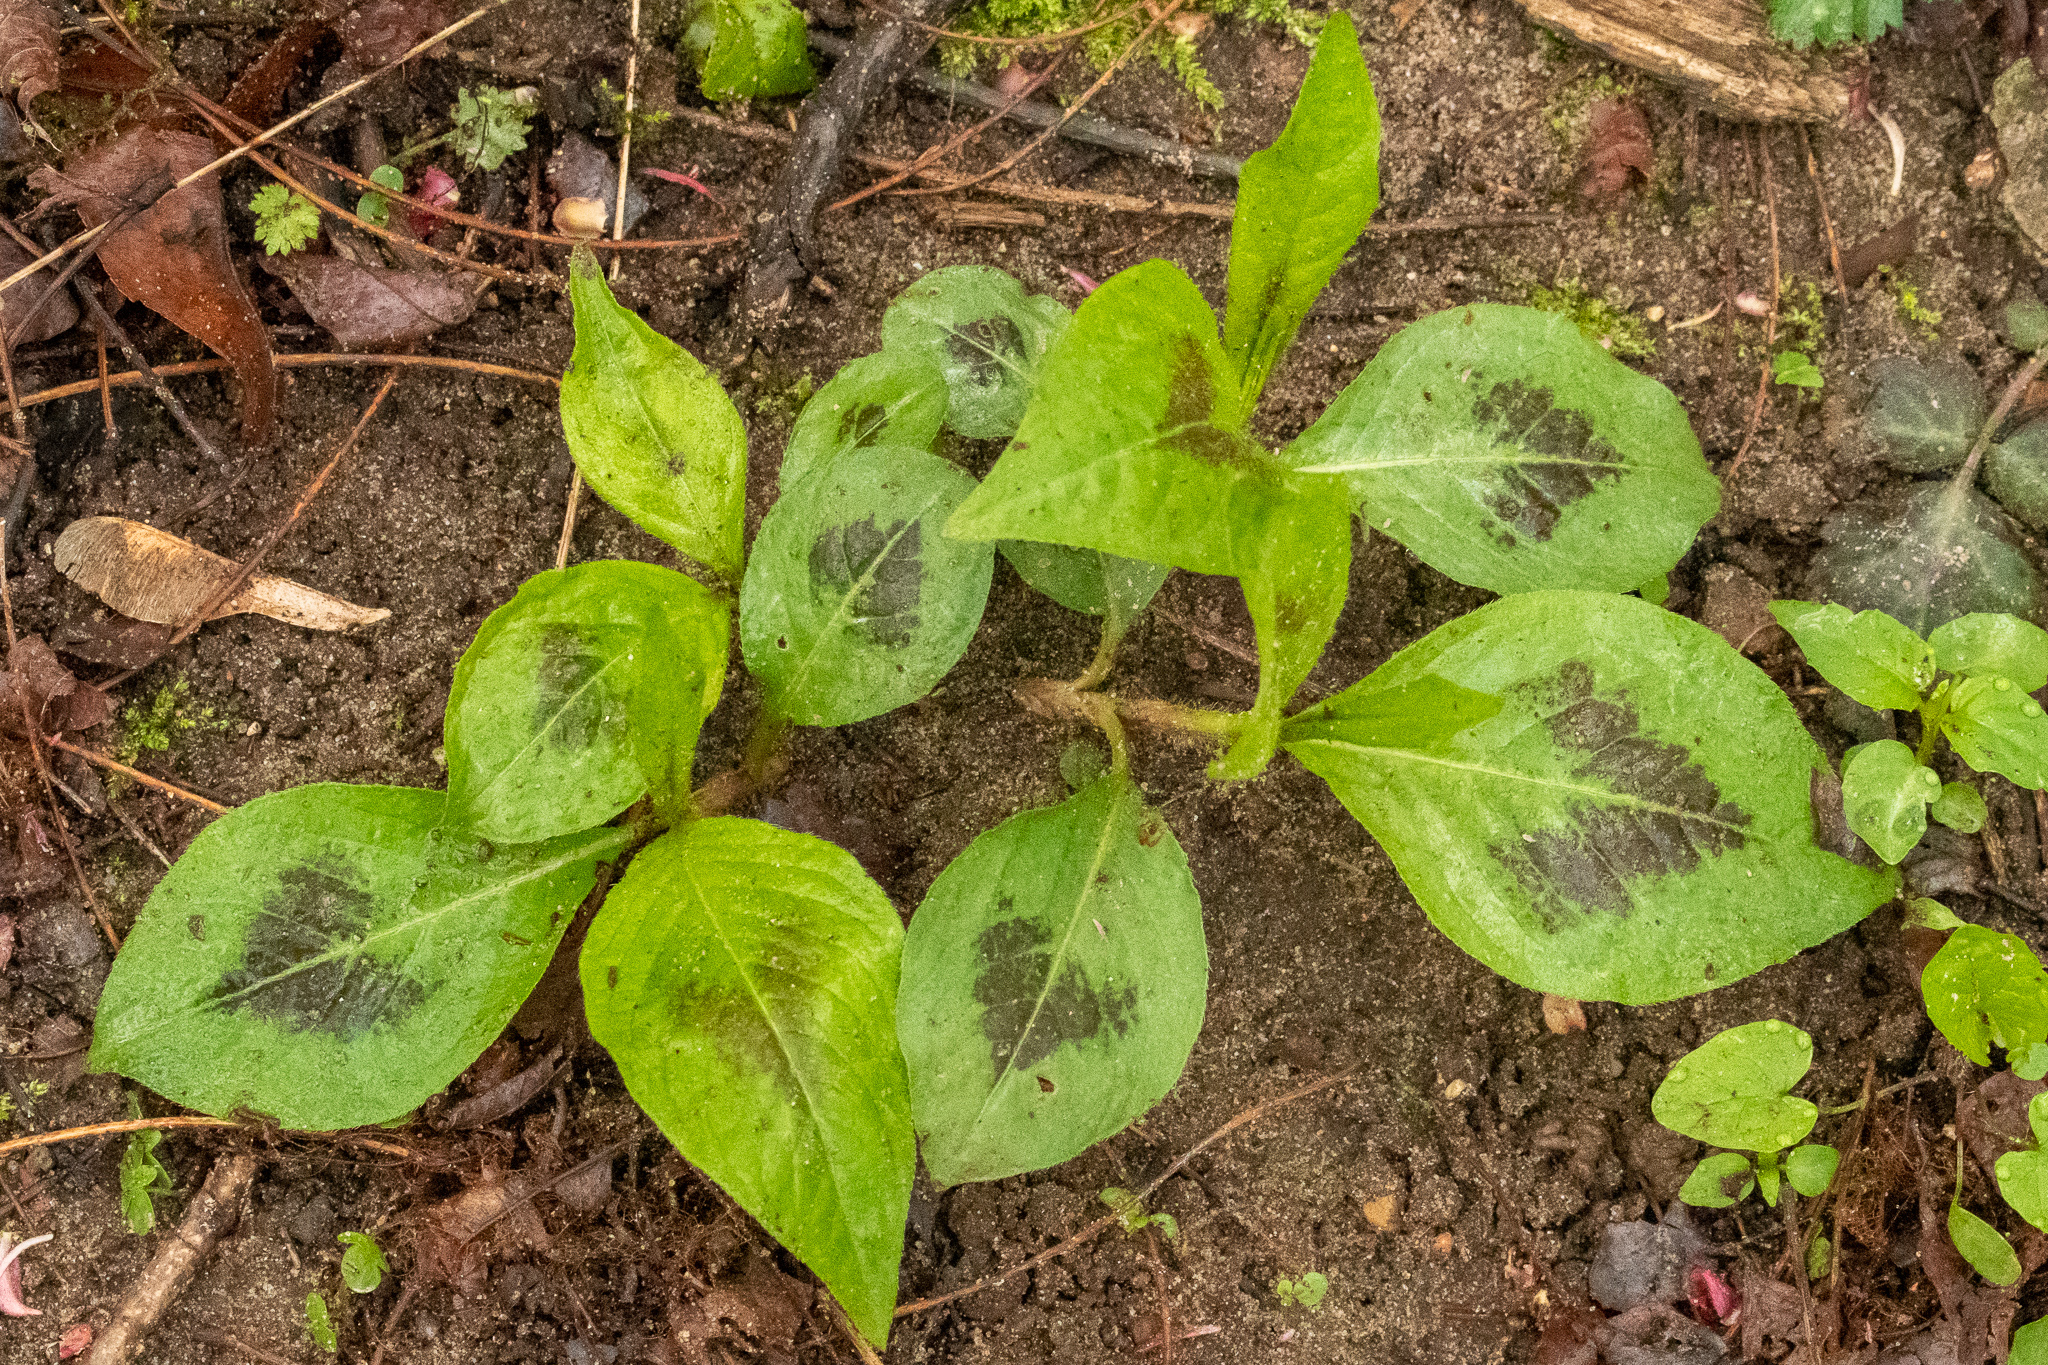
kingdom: Plantae
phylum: Tracheophyta
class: Magnoliopsida
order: Caryophyllales
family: Polygonaceae
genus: Persicaria
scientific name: Persicaria virginiana
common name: Jumpseed
